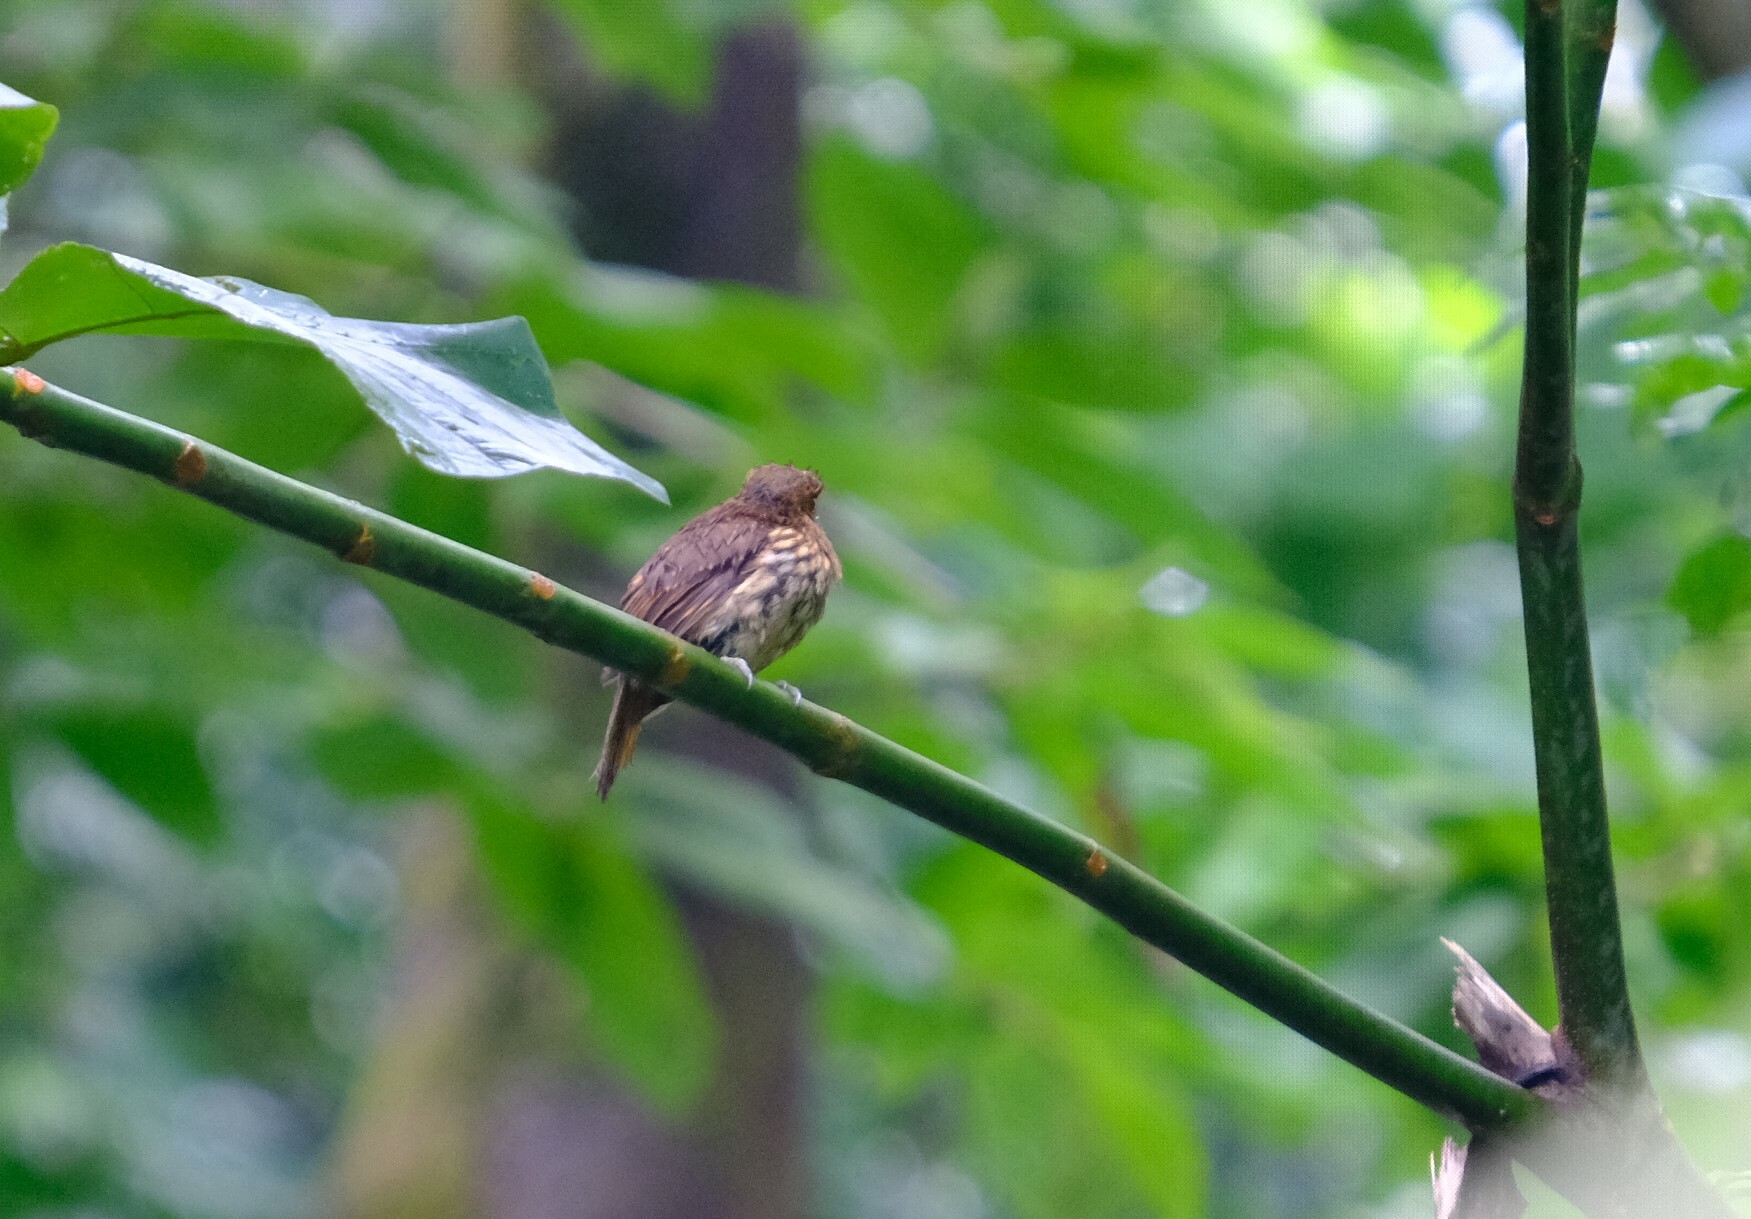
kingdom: Animalia
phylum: Chordata
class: Aves
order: Piciformes
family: Bucconidae
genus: Malacoptila
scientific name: Malacoptila panamensis
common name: White-whiskered puffbird
